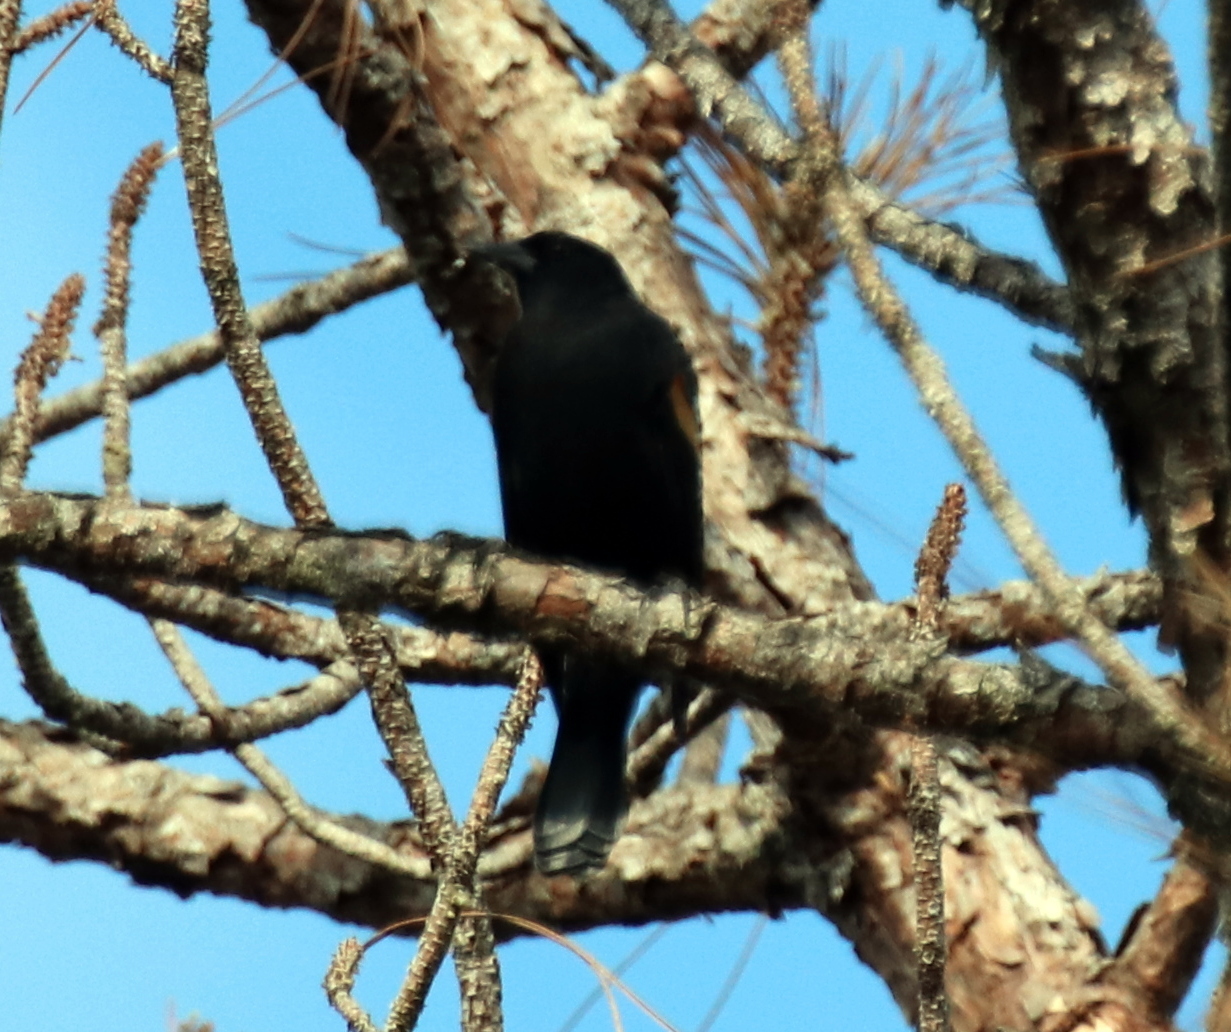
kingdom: Animalia
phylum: Chordata
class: Aves
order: Passeriformes
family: Icteridae
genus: Agelaius
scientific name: Agelaius phoeniceus
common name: Red-winged blackbird
